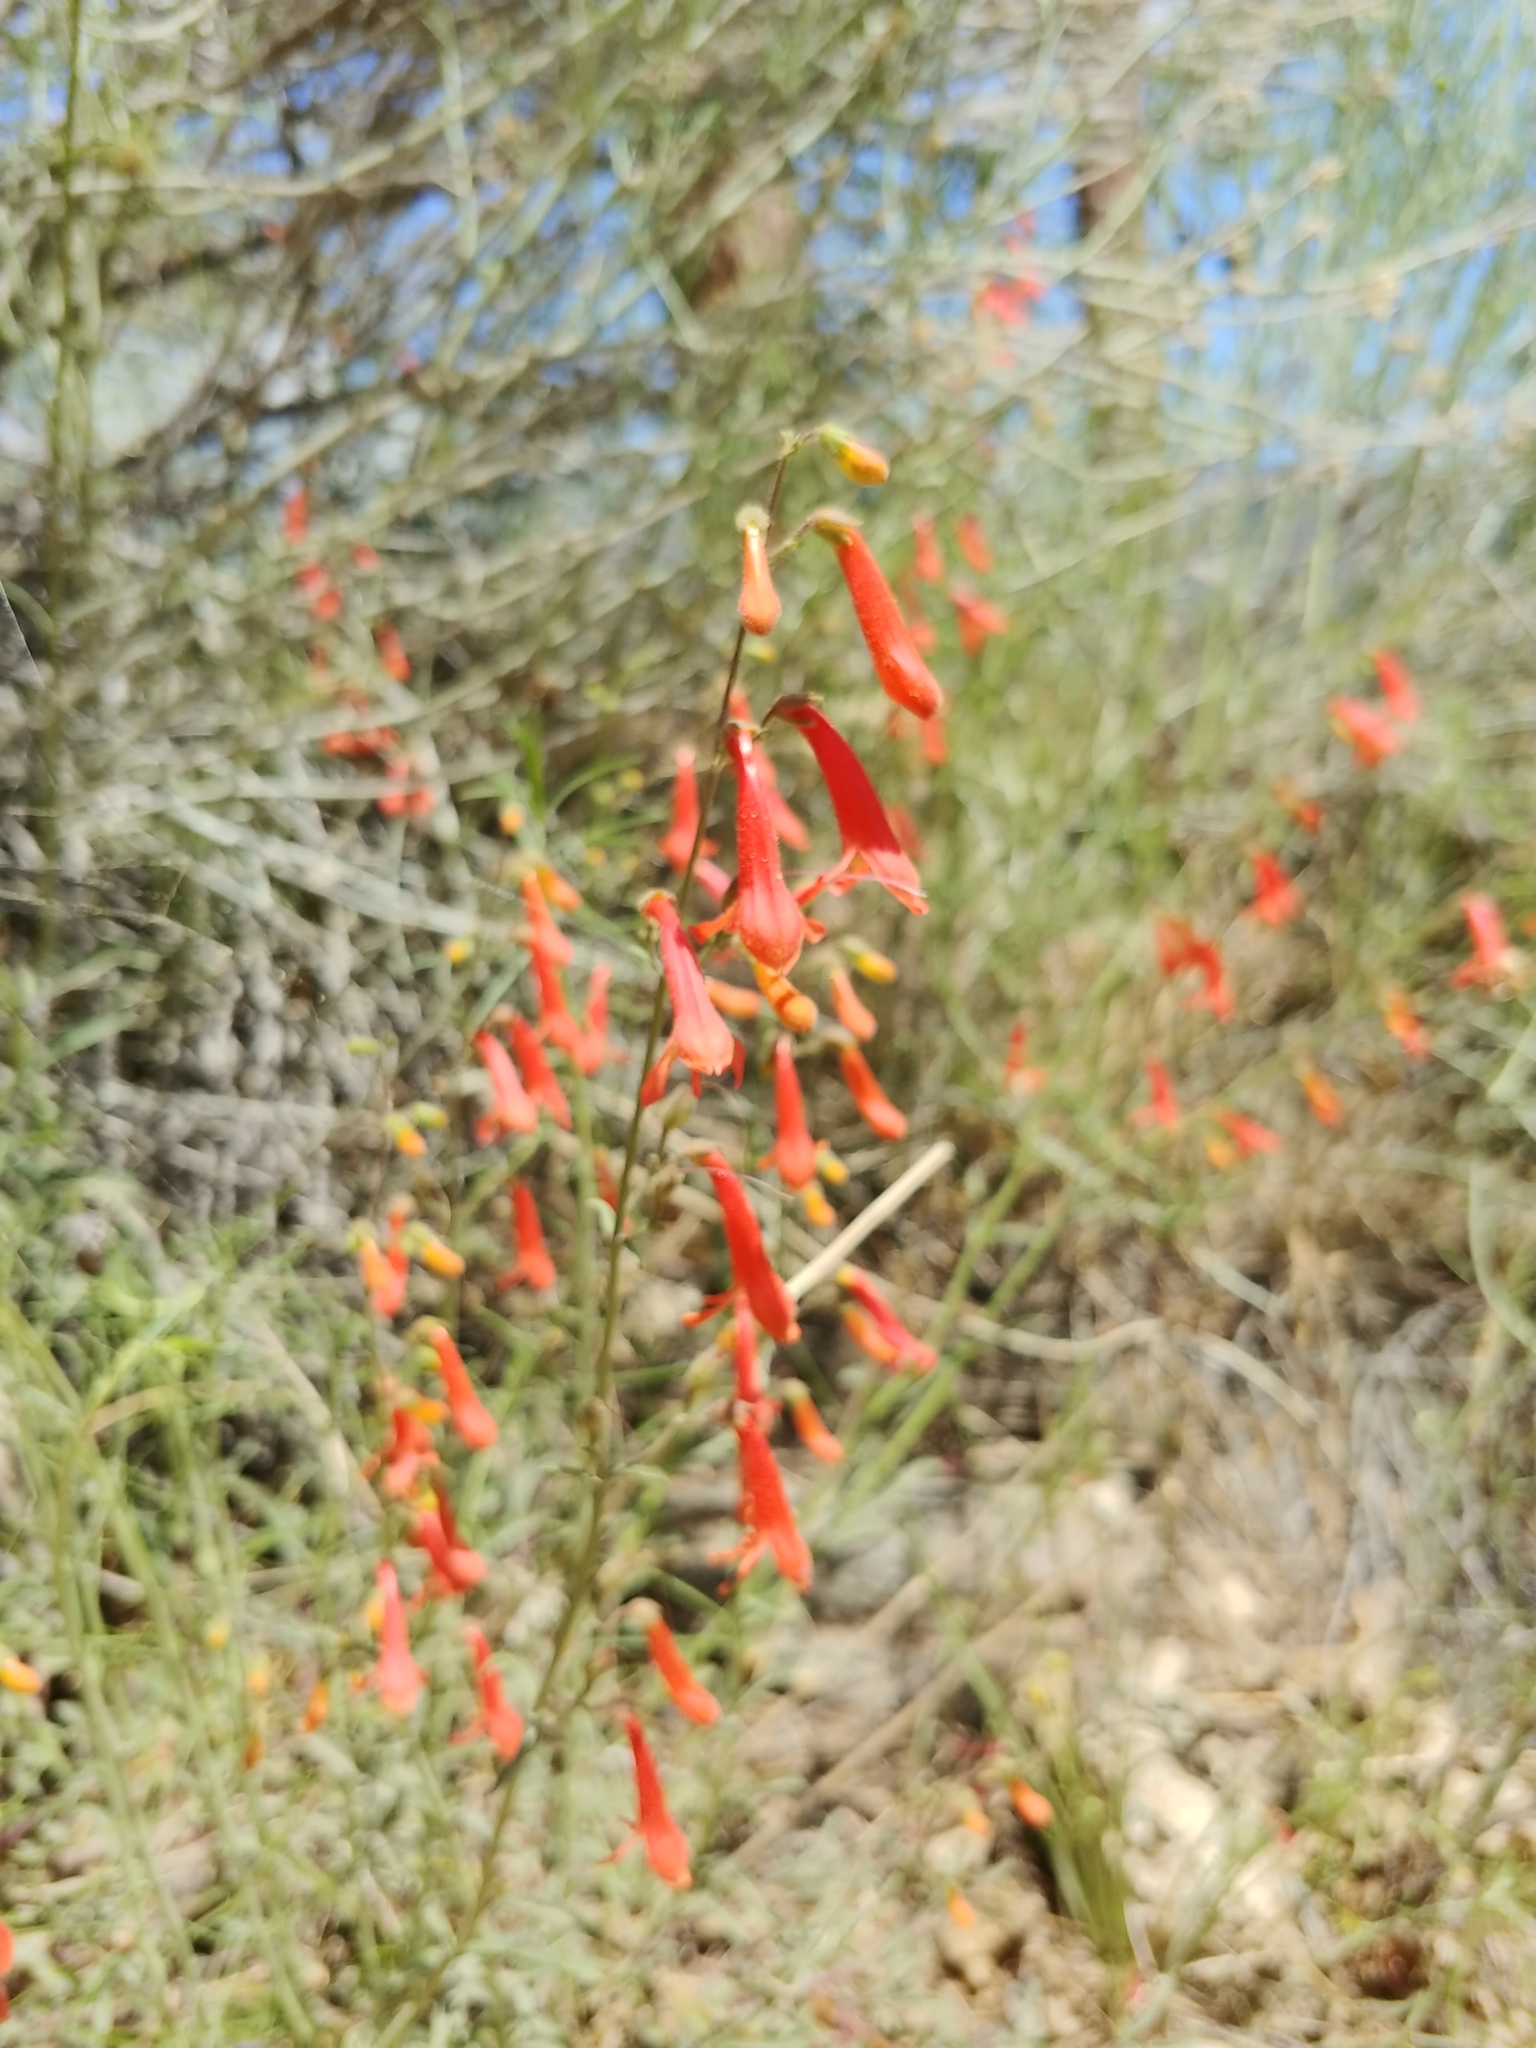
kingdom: Plantae
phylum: Tracheophyta
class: Magnoliopsida
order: Lamiales
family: Plantaginaceae
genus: Penstemon
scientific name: Penstemon rostriflorus
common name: Bridges's penstemon
